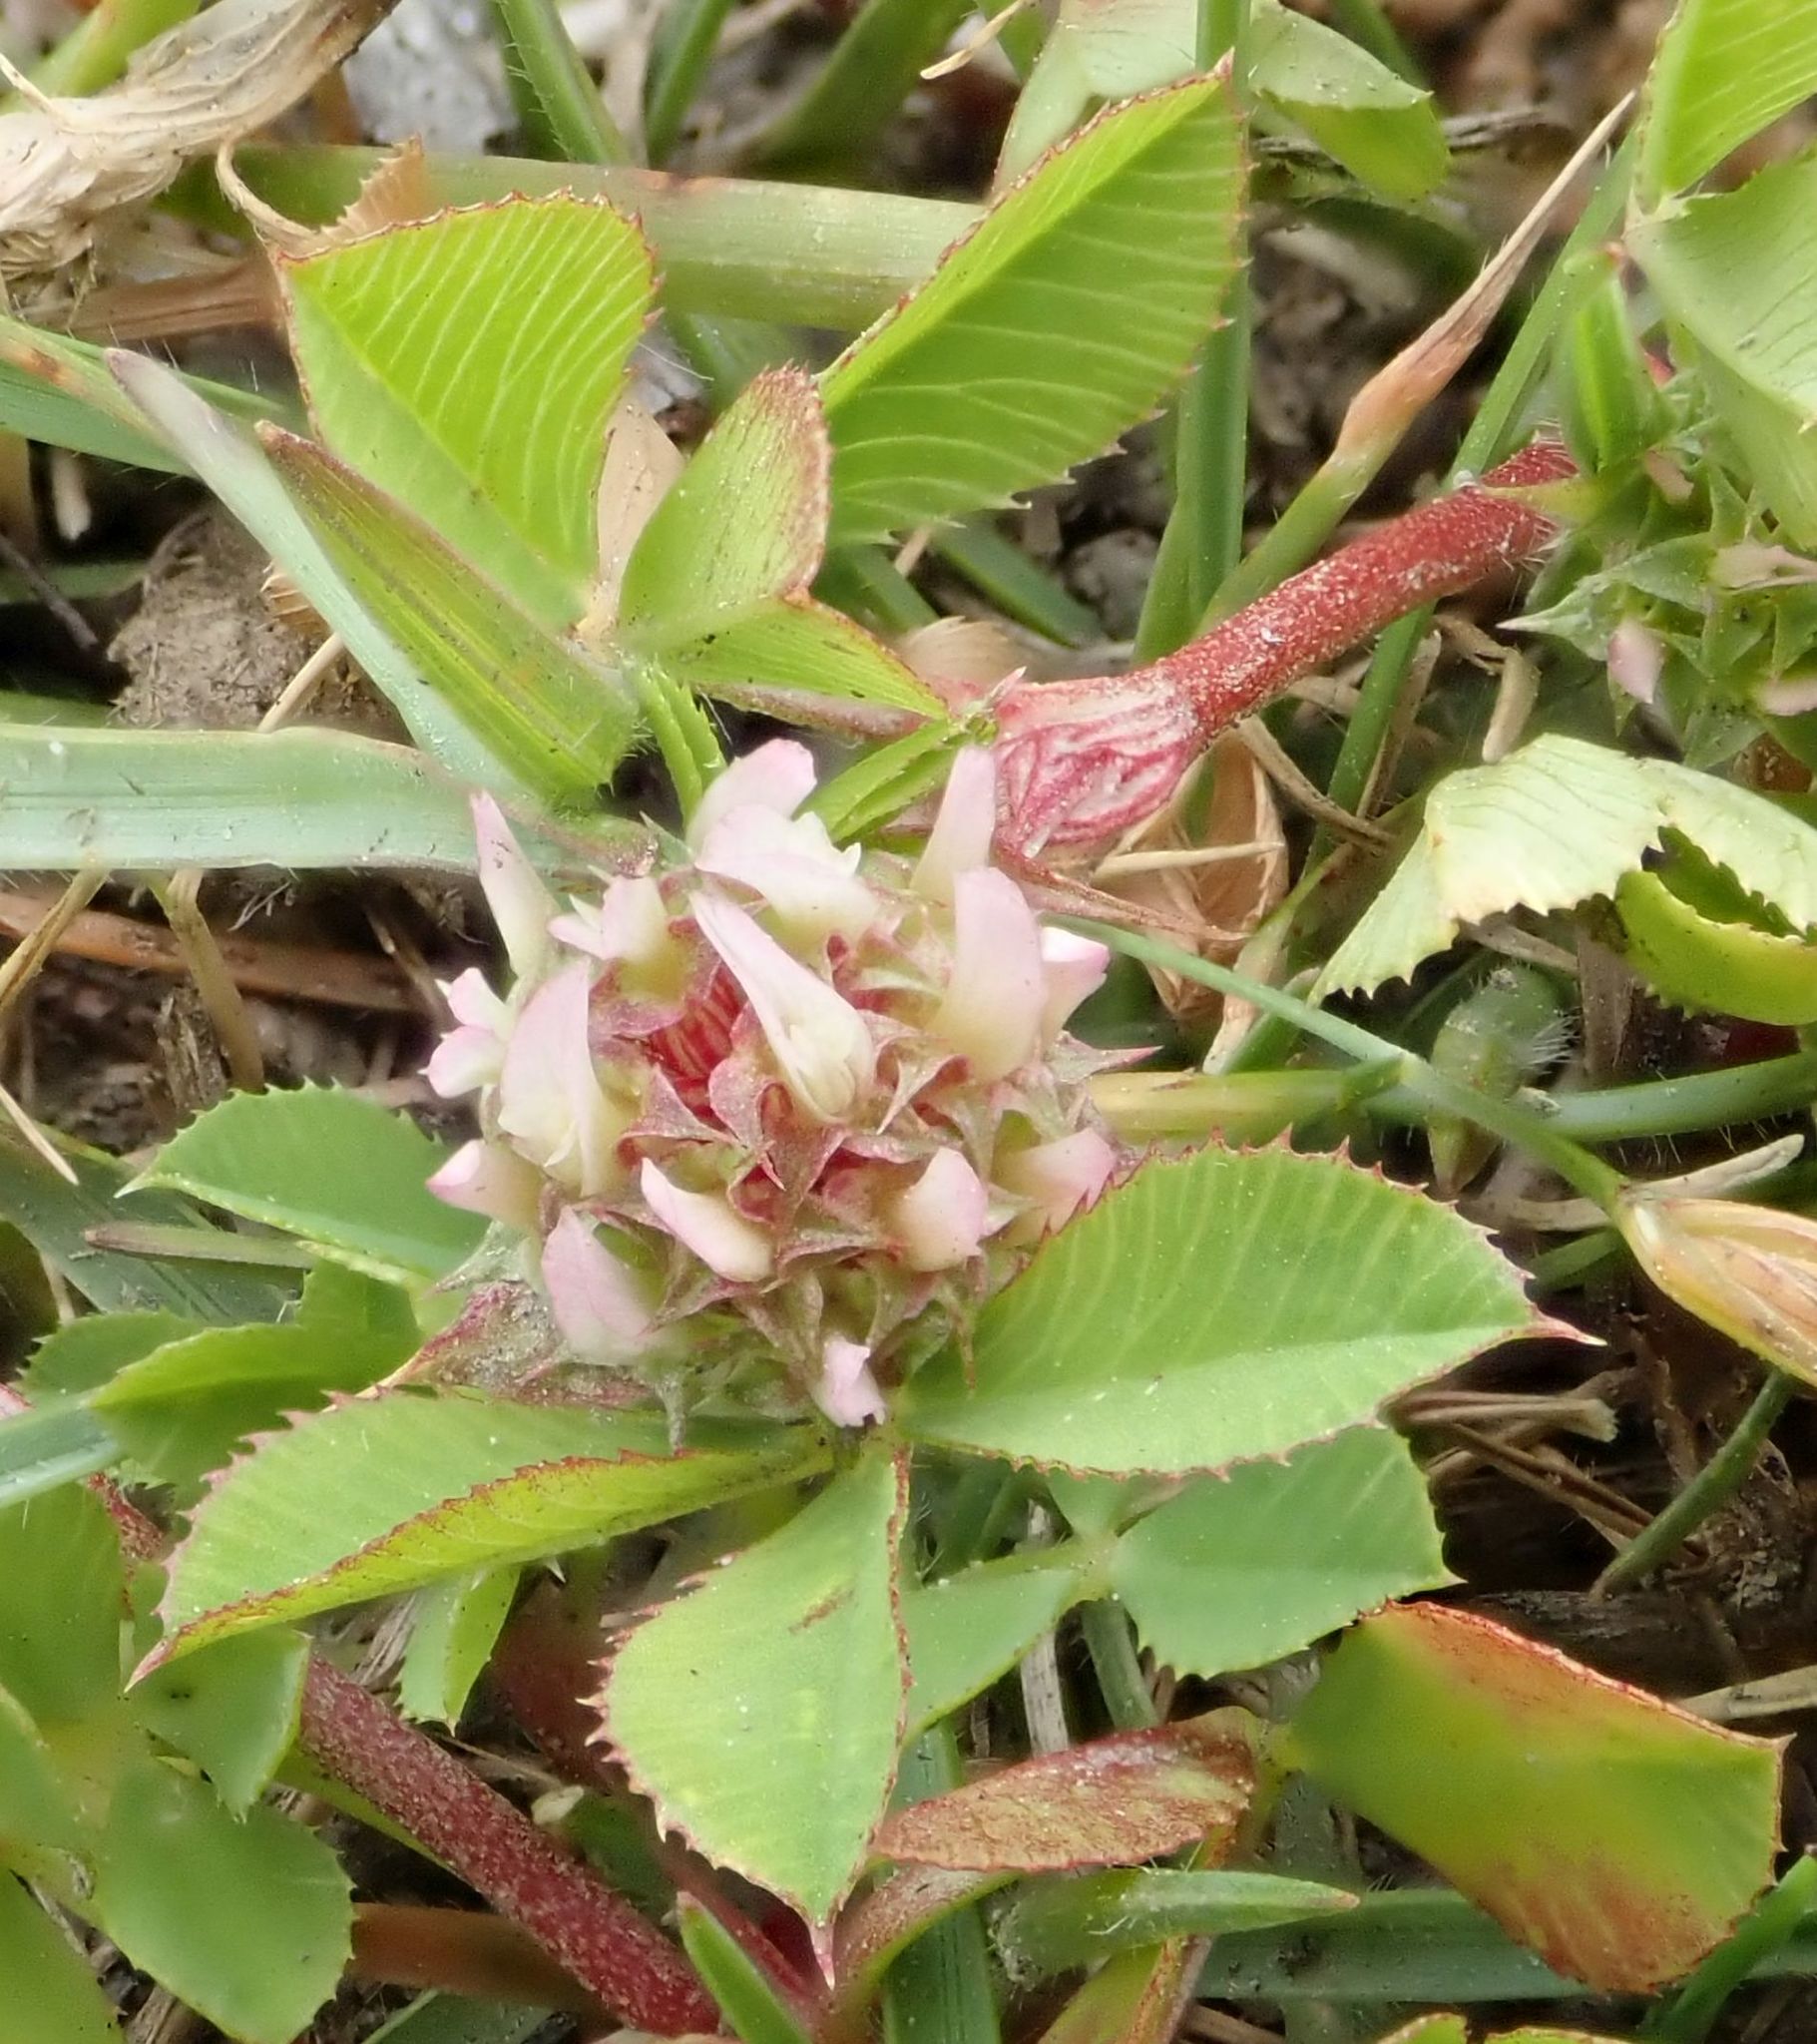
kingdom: Plantae
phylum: Tracheophyta
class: Magnoliopsida
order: Fabales
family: Fabaceae
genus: Trifolium
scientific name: Trifolium glomeratum
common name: Clustered clover
